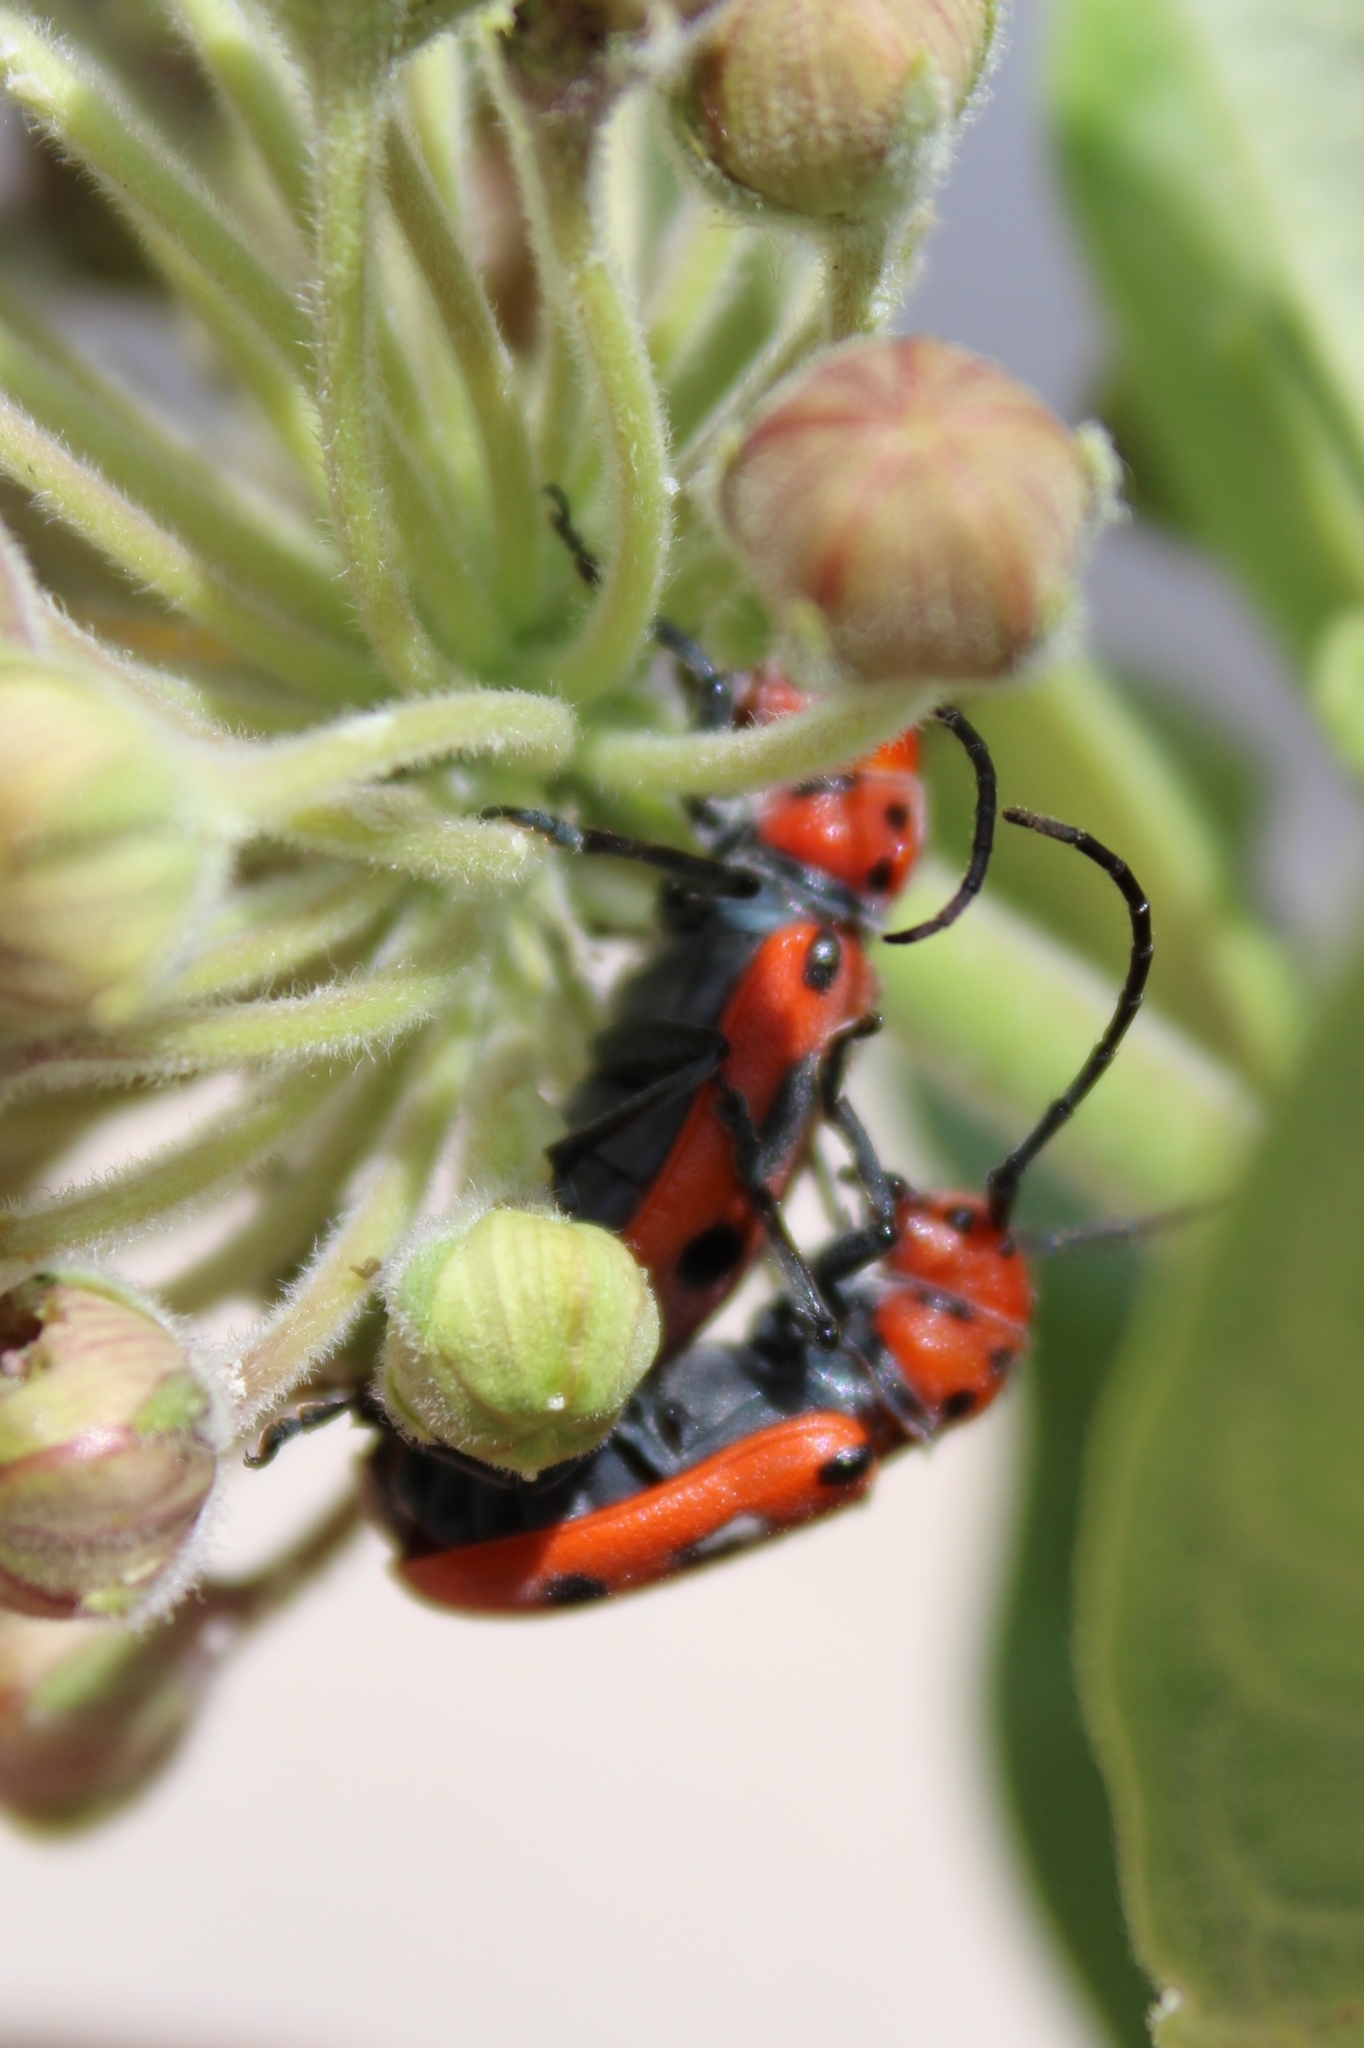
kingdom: Animalia
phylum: Arthropoda
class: Insecta
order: Coleoptera
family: Cerambycidae
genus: Tetraopes
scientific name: Tetraopes tetrophthalmus
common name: Red milkweed beetle
